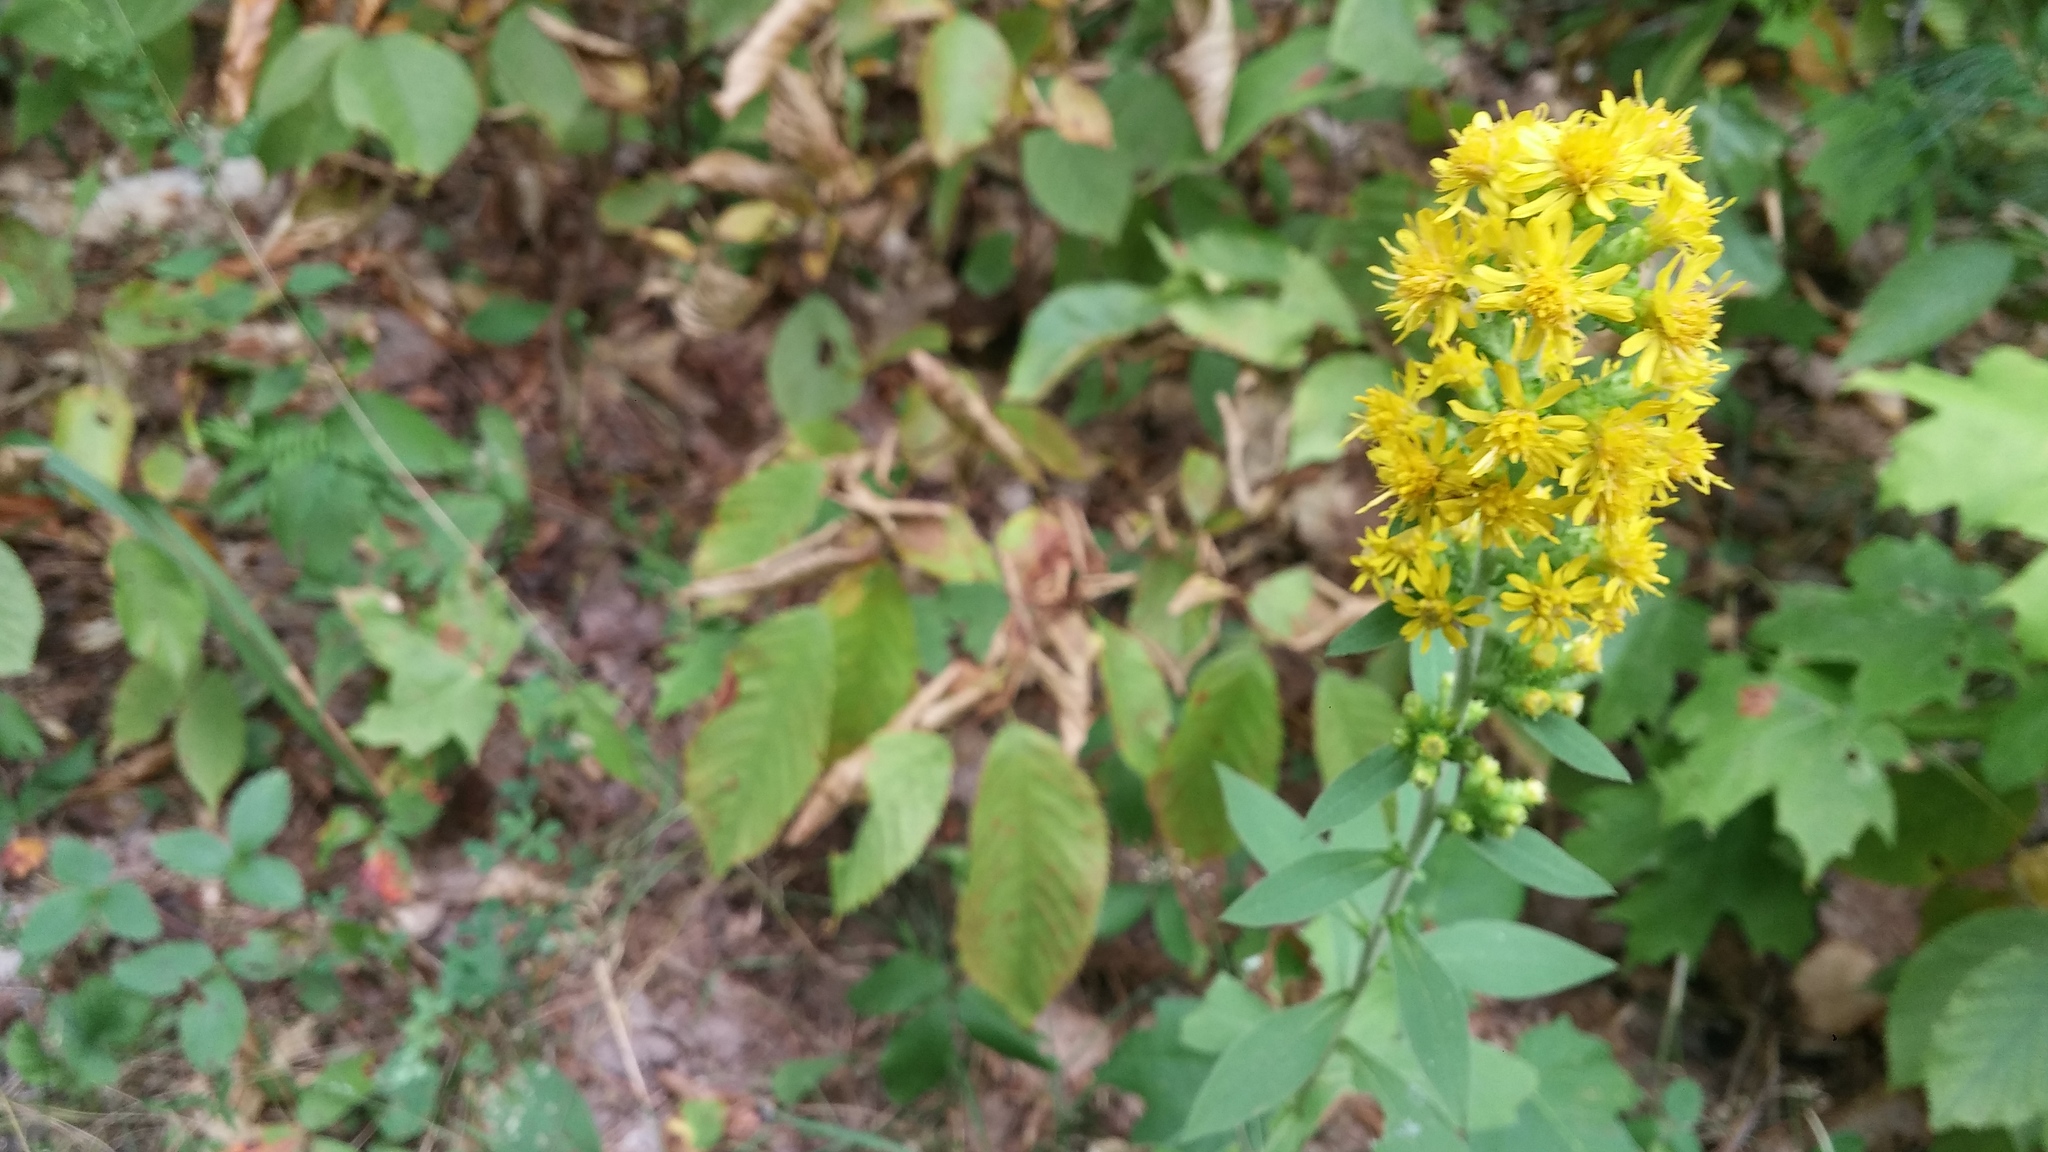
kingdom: Plantae
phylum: Tracheophyta
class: Magnoliopsida
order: Asterales
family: Asteraceae
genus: Solidago
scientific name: Solidago squarrosa
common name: Stout goldenrod
